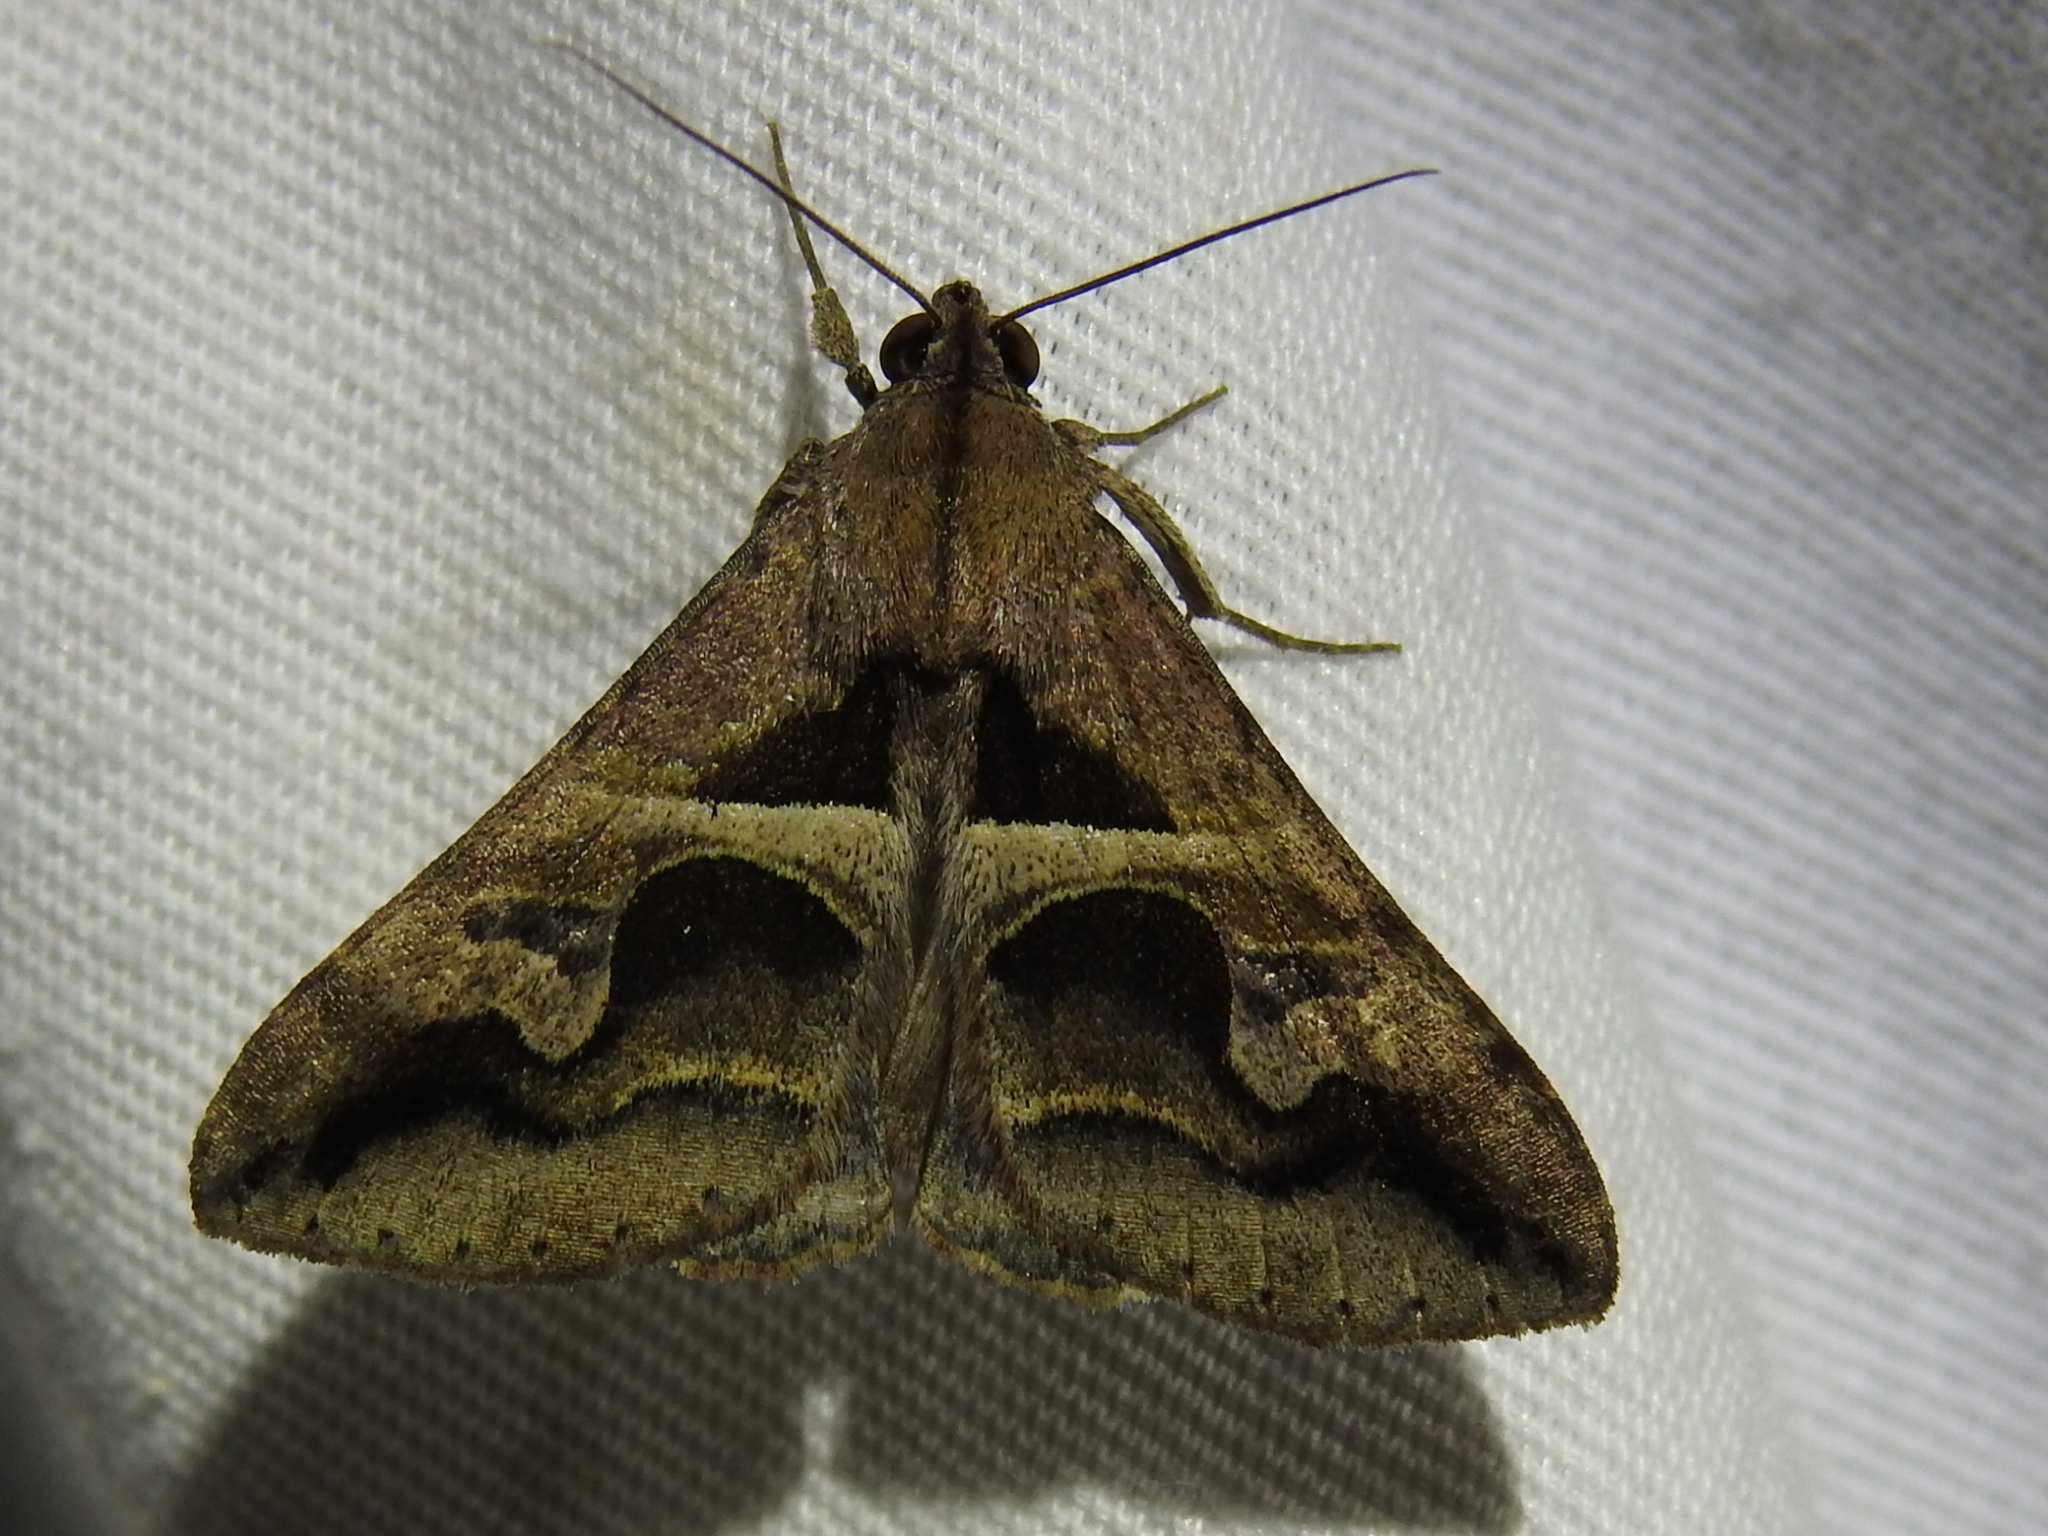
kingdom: Animalia
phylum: Arthropoda
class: Insecta
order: Lepidoptera
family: Erebidae
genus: Melipotis
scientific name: Melipotis cellaris
